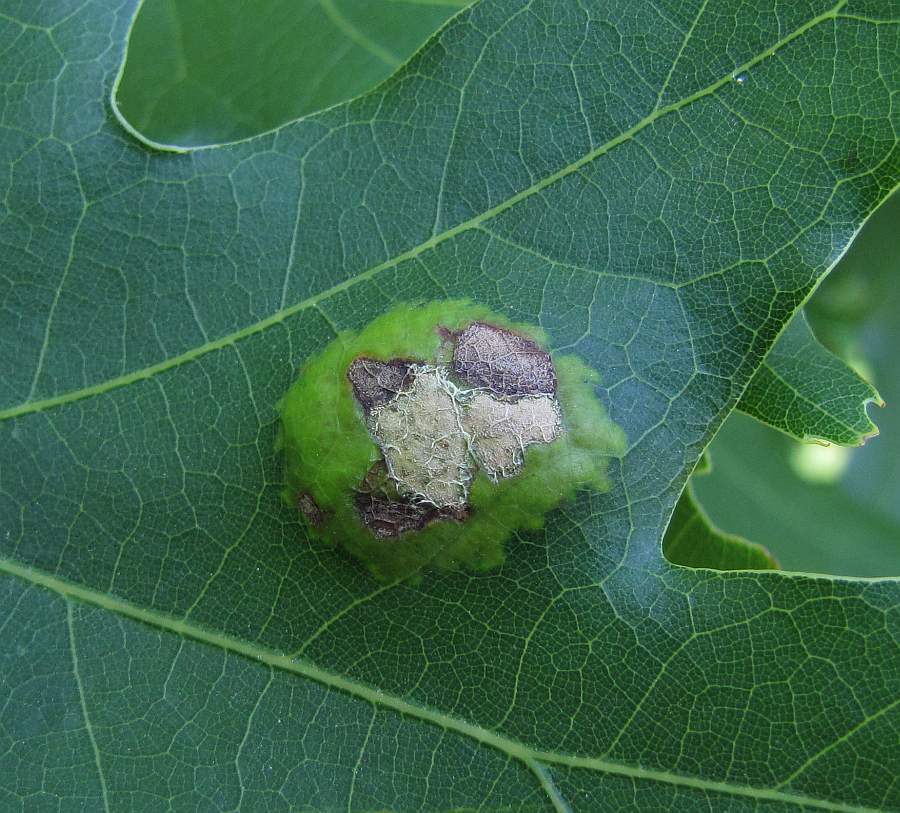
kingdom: Plantae
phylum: Tracheophyta
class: Magnoliopsida
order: Fagales
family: Fagaceae
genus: Quercus
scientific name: Quercus rubra
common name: Red oak
